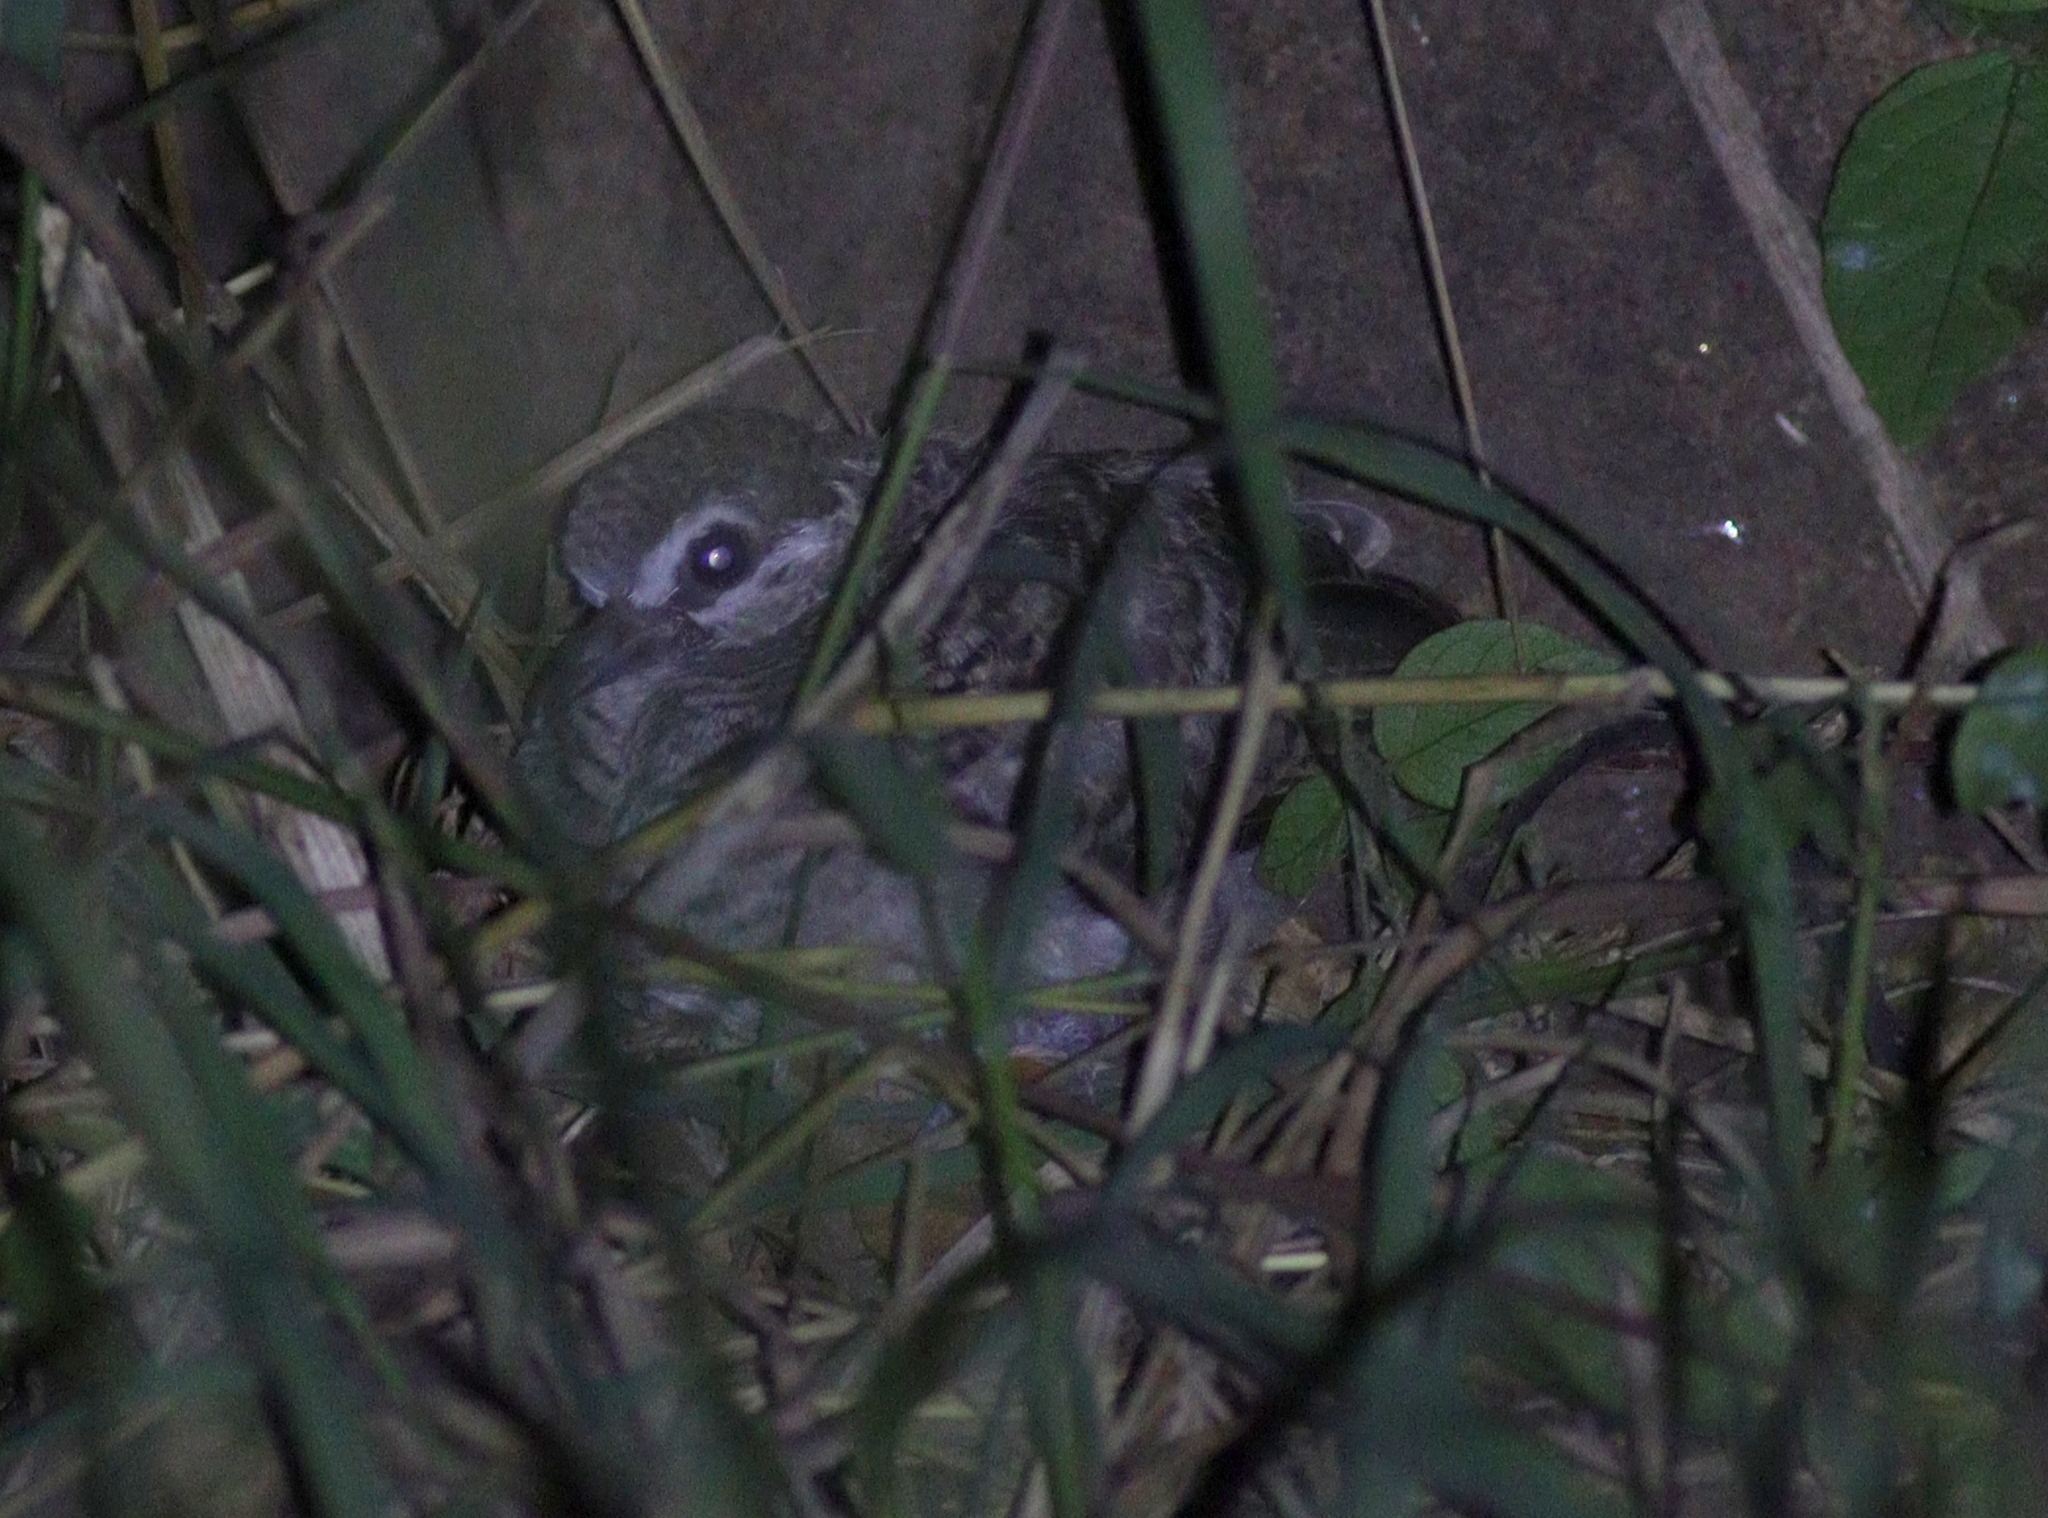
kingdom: Animalia
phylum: Chordata
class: Aves
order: Columbiformes
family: Columbidae
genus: Geopelia
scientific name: Geopelia striata
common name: Zebra dove
